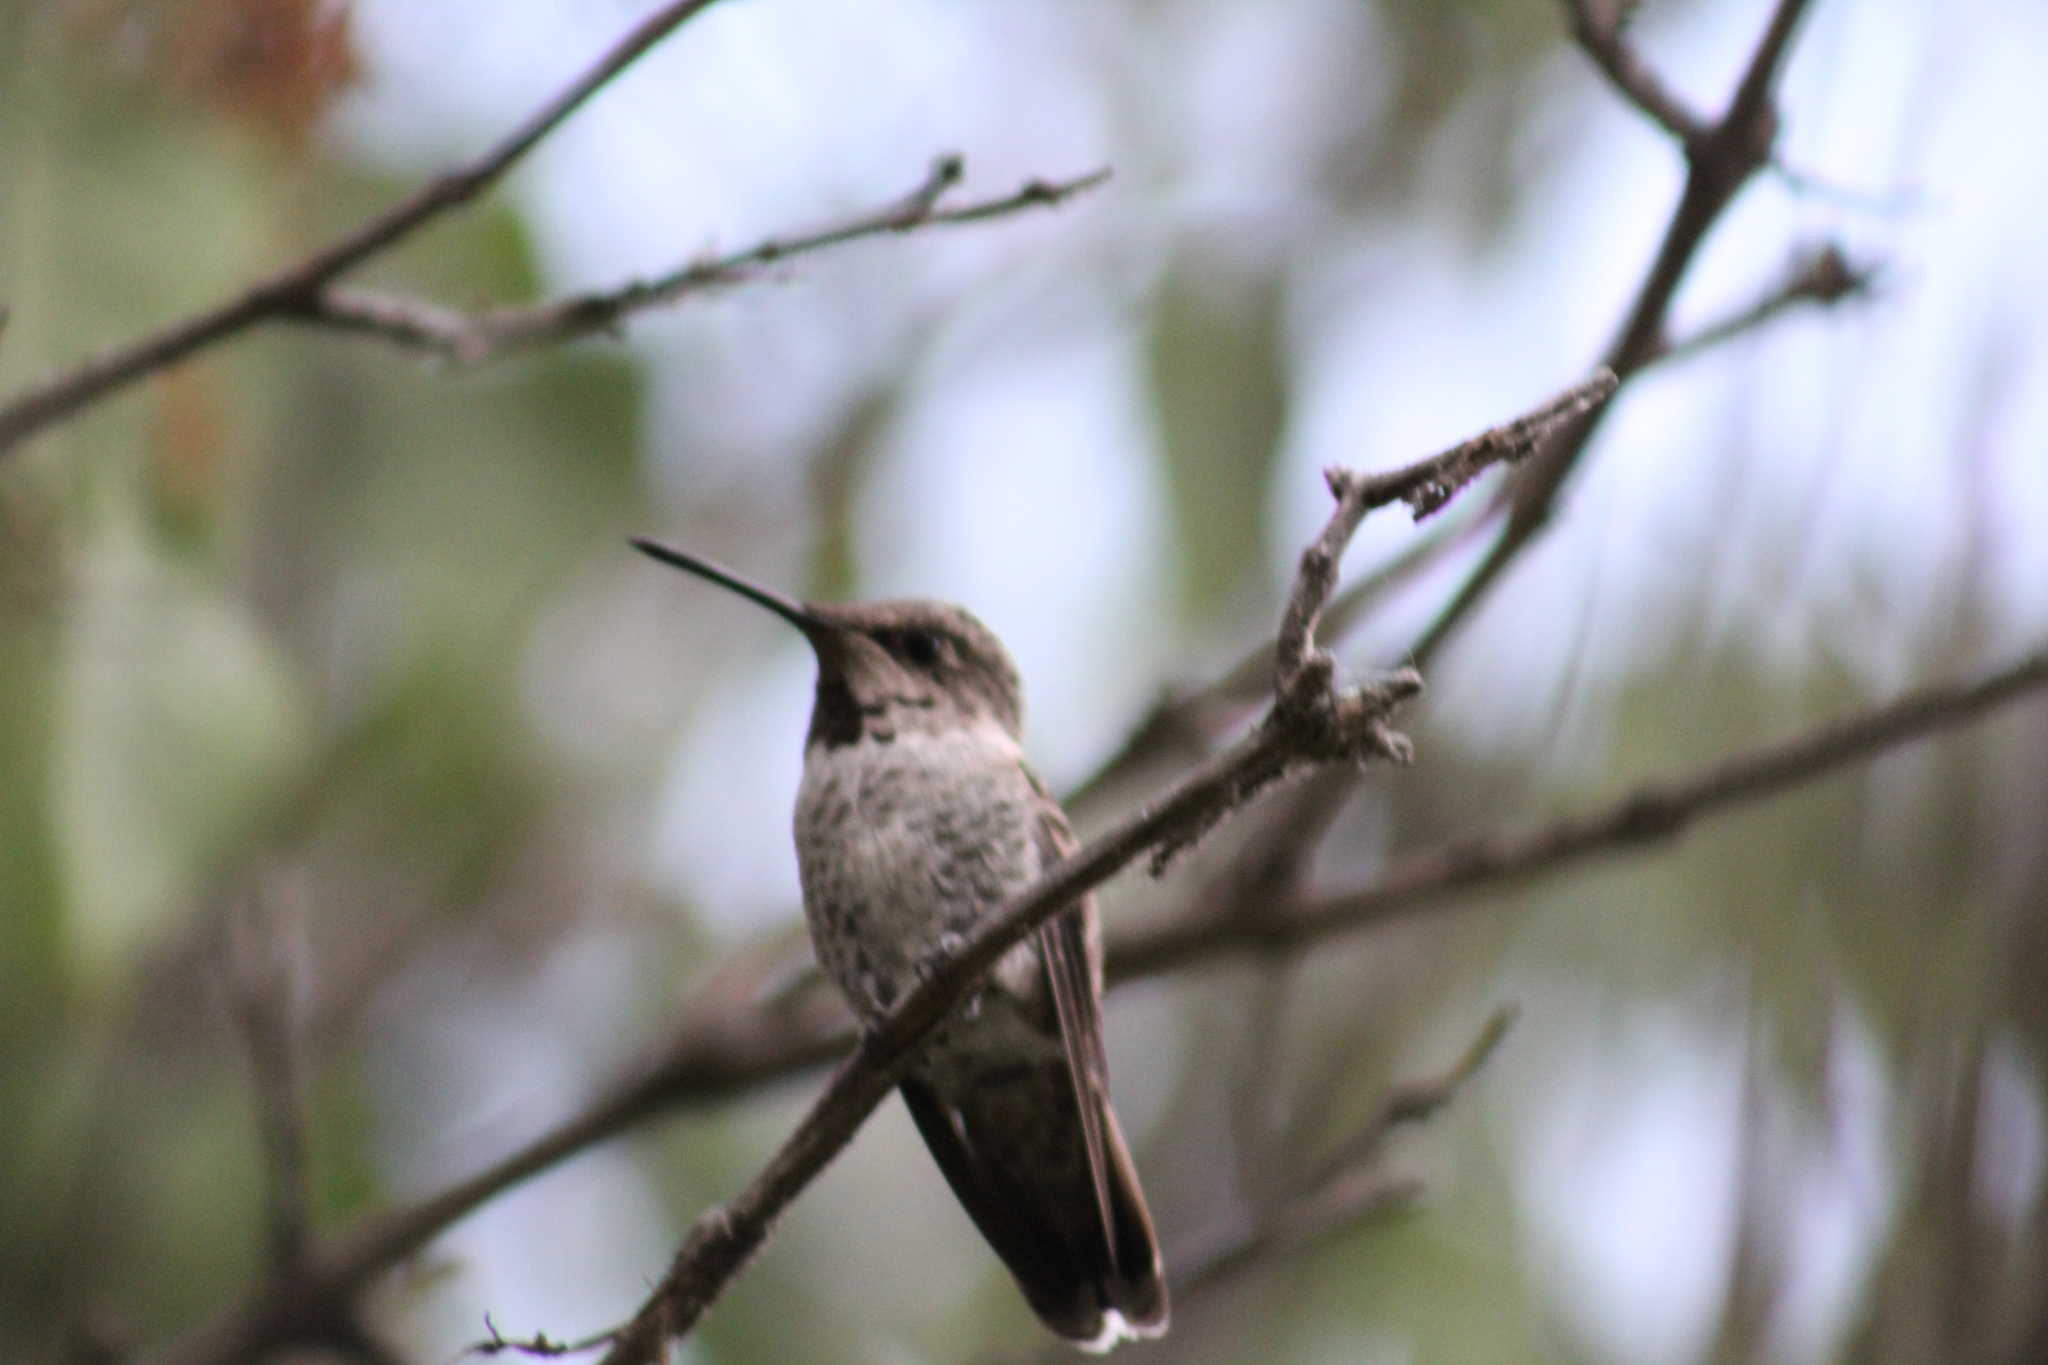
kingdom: Animalia
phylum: Chordata
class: Aves
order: Apodiformes
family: Trochilidae
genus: Calypte
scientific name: Calypte anna
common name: Anna's hummingbird
